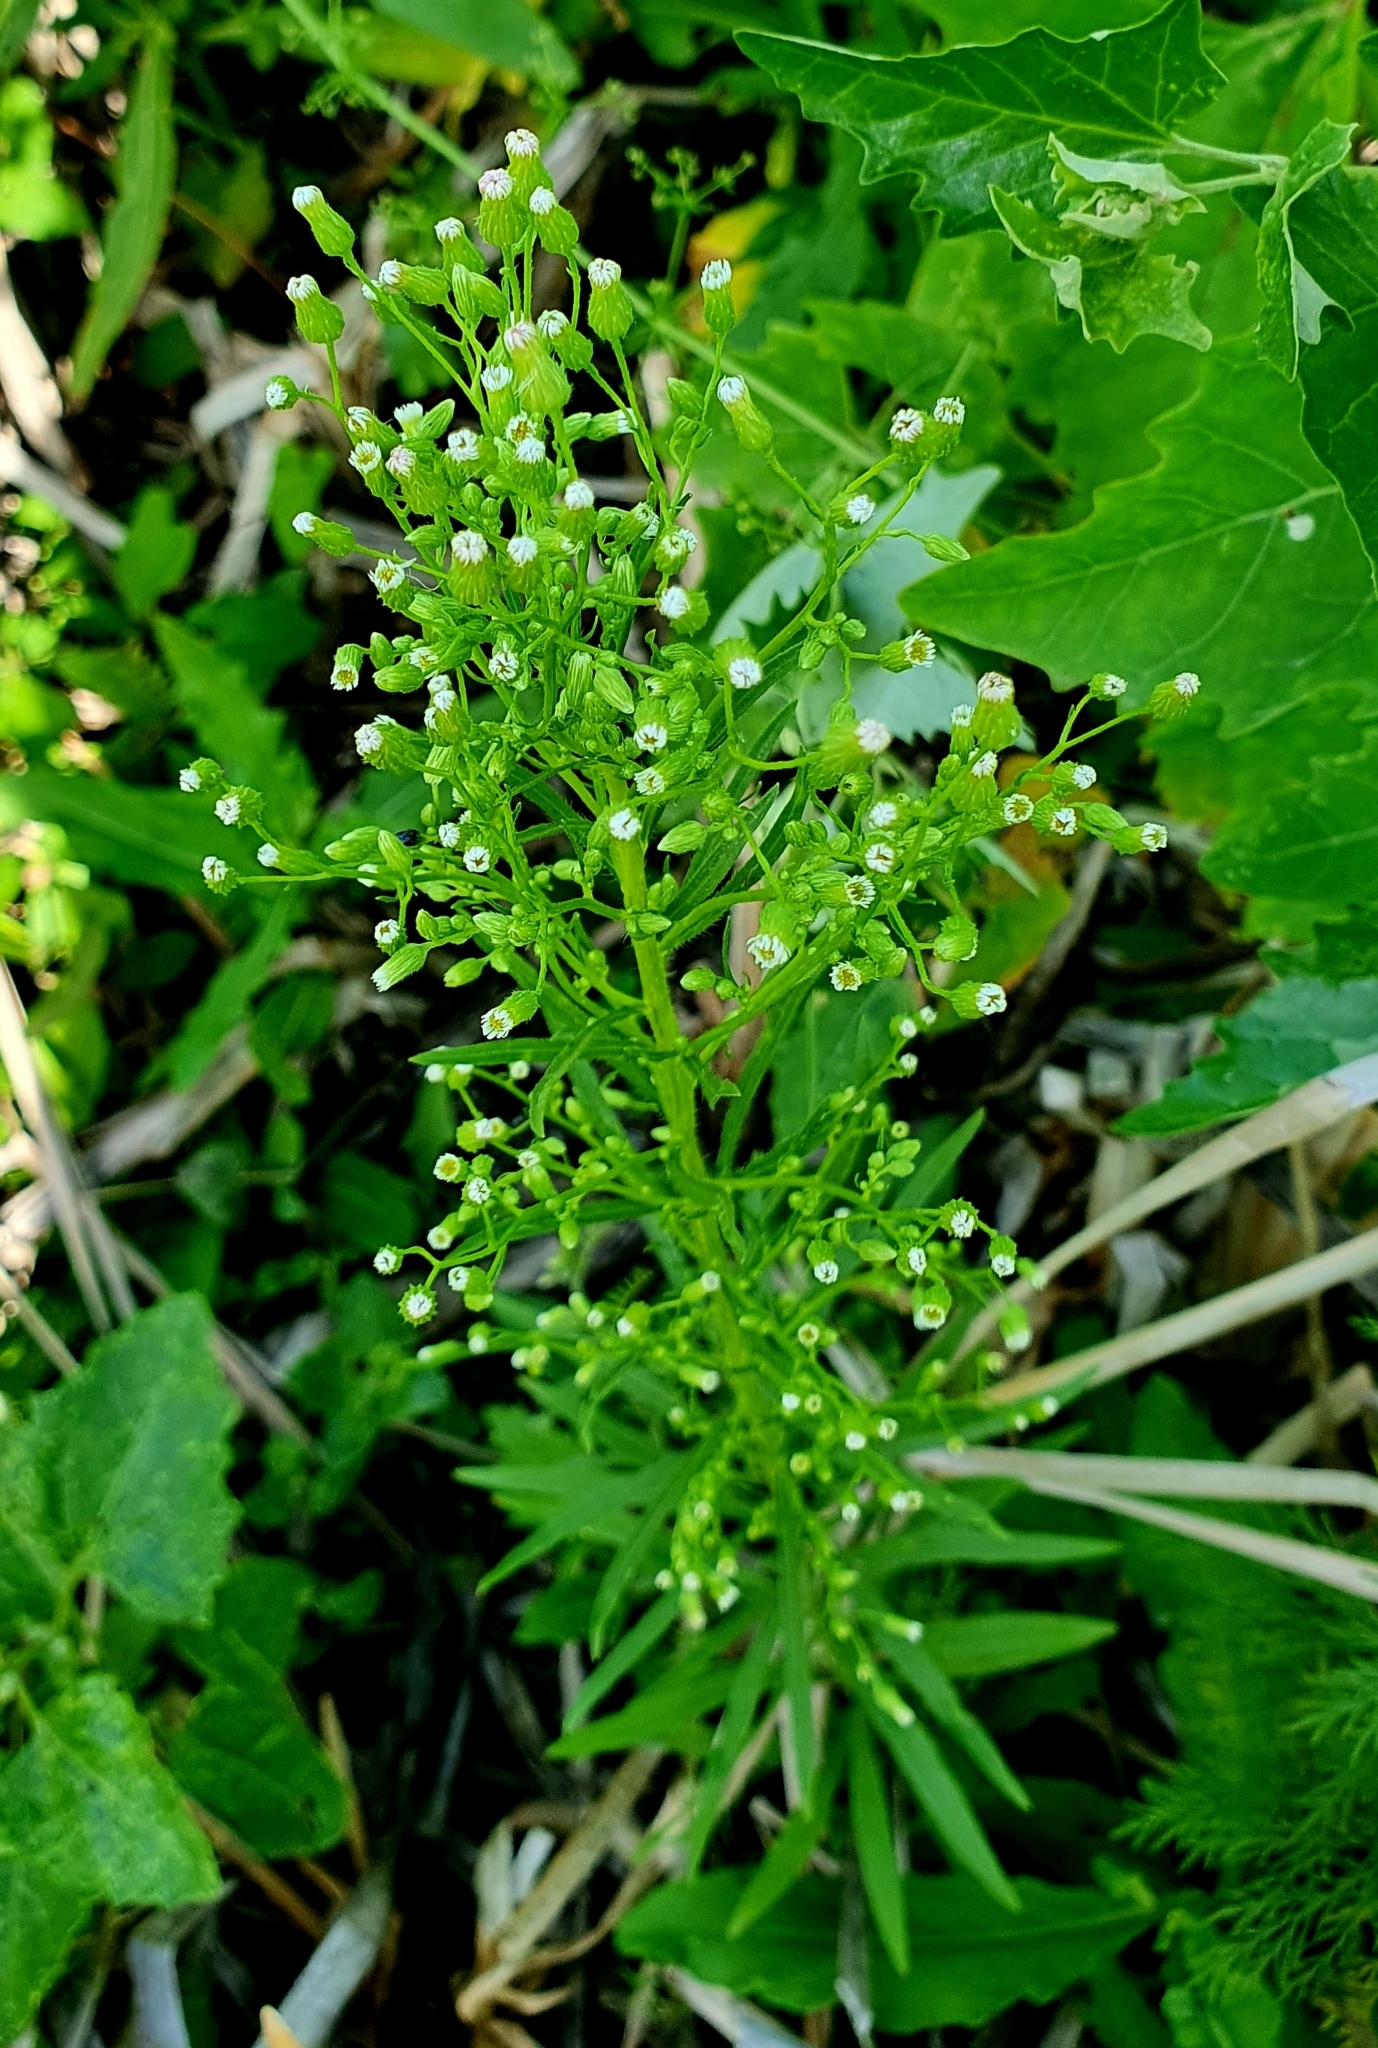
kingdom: Plantae
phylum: Tracheophyta
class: Magnoliopsida
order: Asterales
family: Asteraceae
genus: Erigeron
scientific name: Erigeron canadensis
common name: Canadian fleabane
